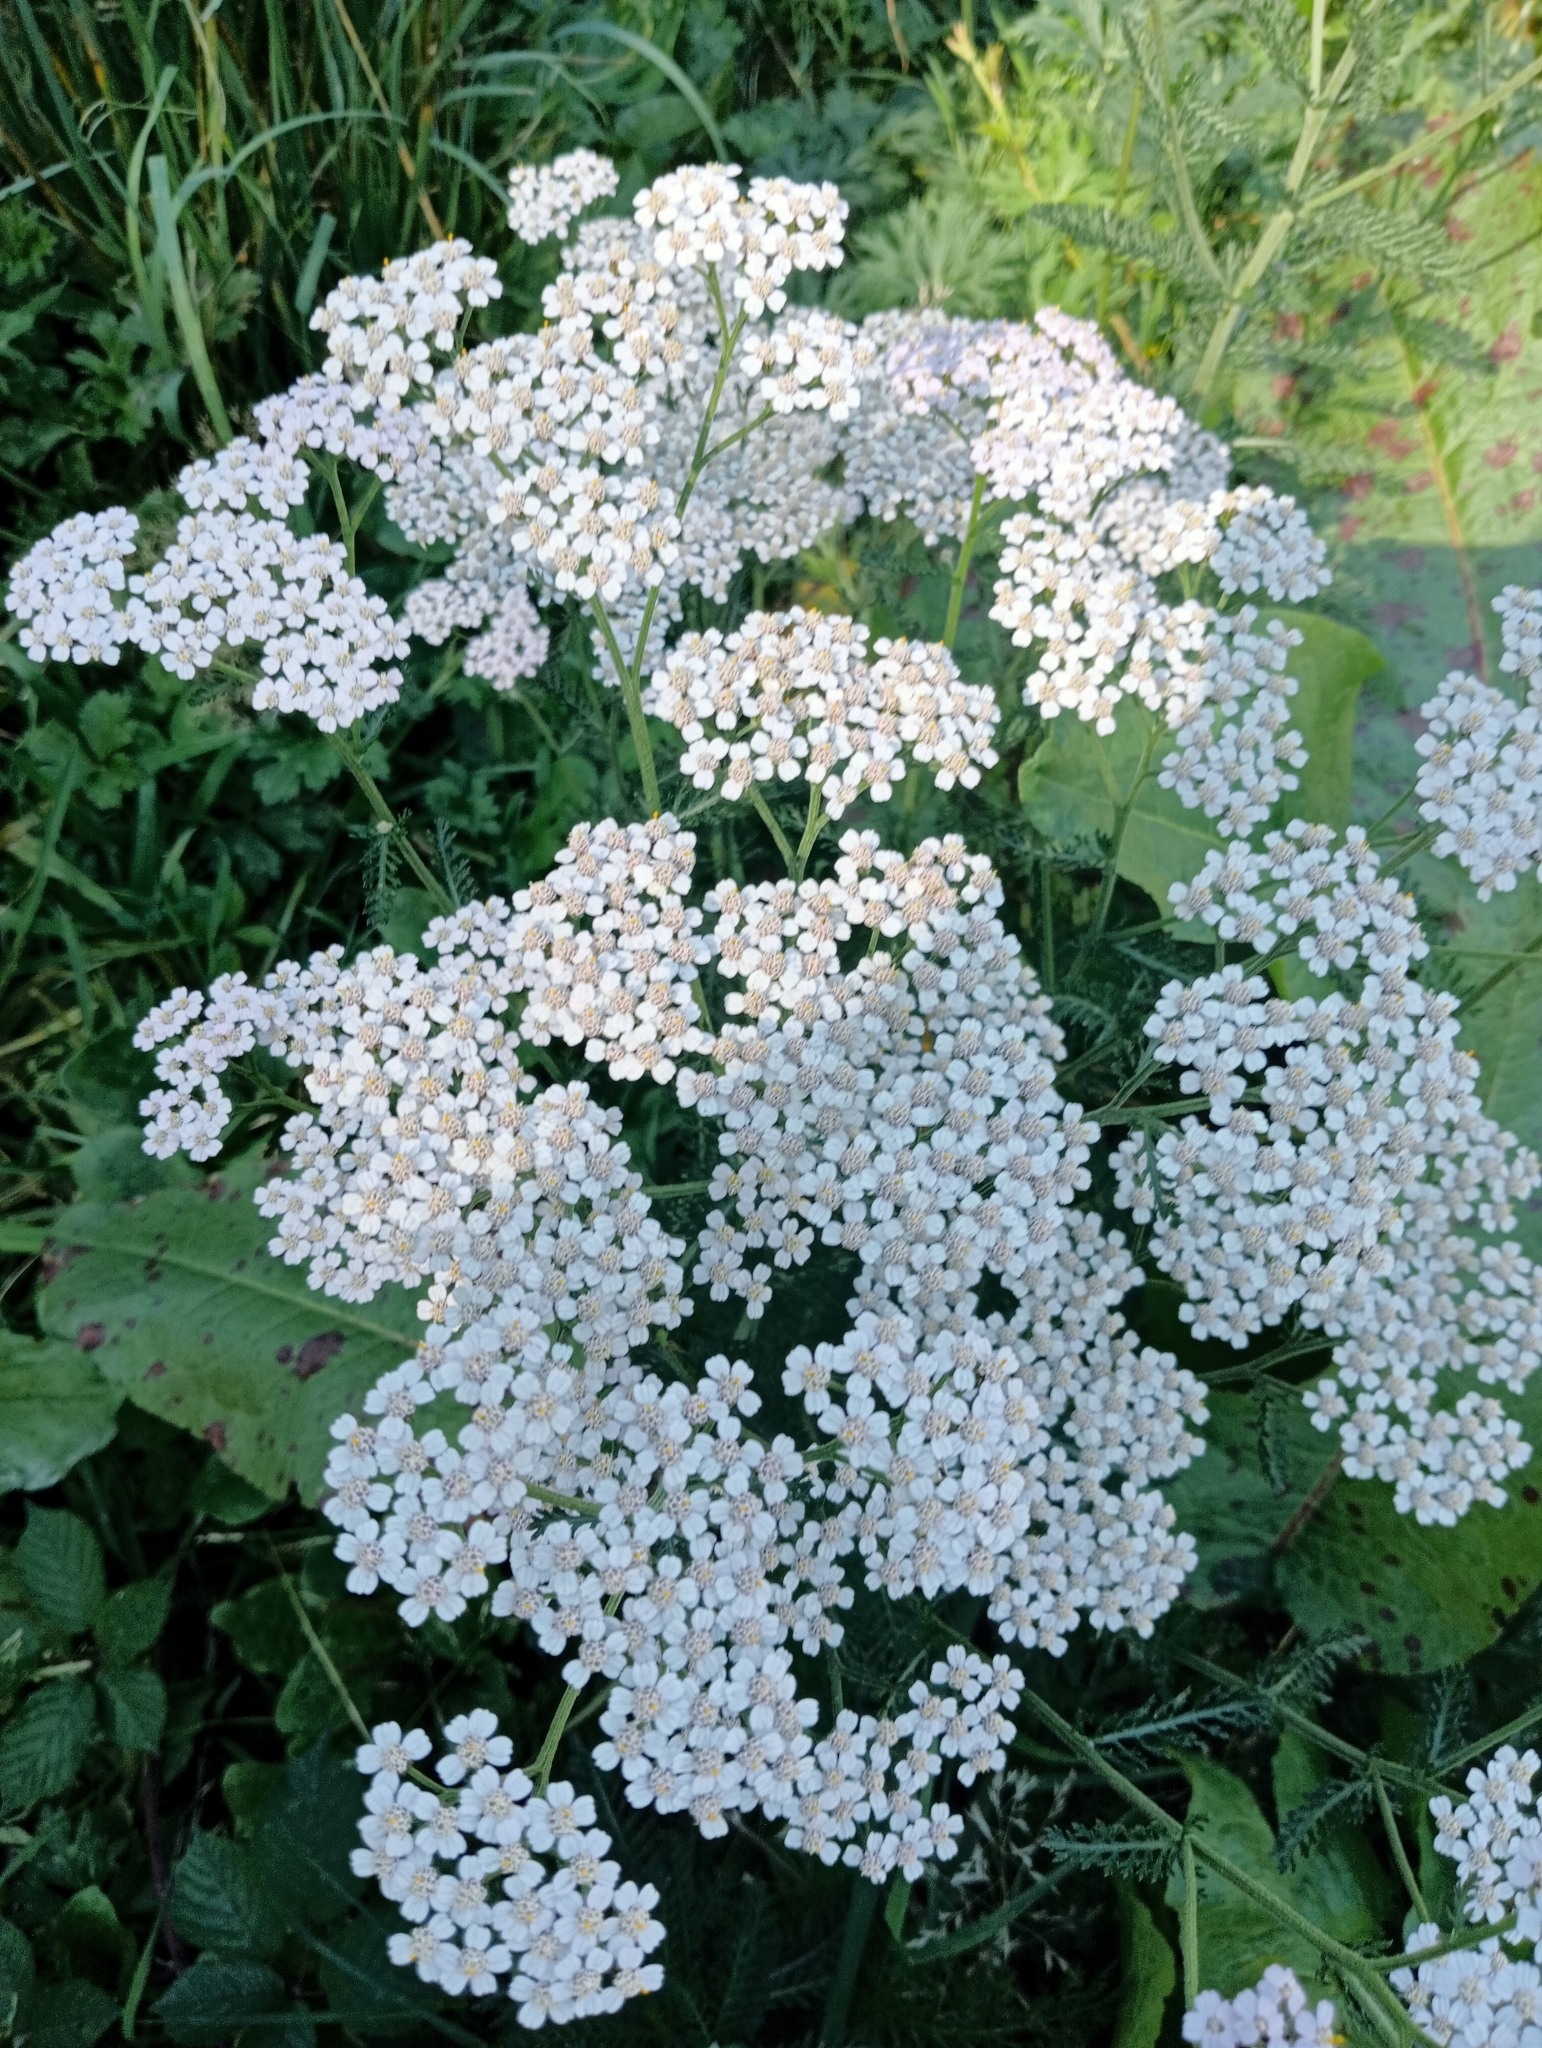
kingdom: Plantae
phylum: Tracheophyta
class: Magnoliopsida
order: Asterales
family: Asteraceae
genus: Achillea
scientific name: Achillea millefolium
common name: Yarrow
